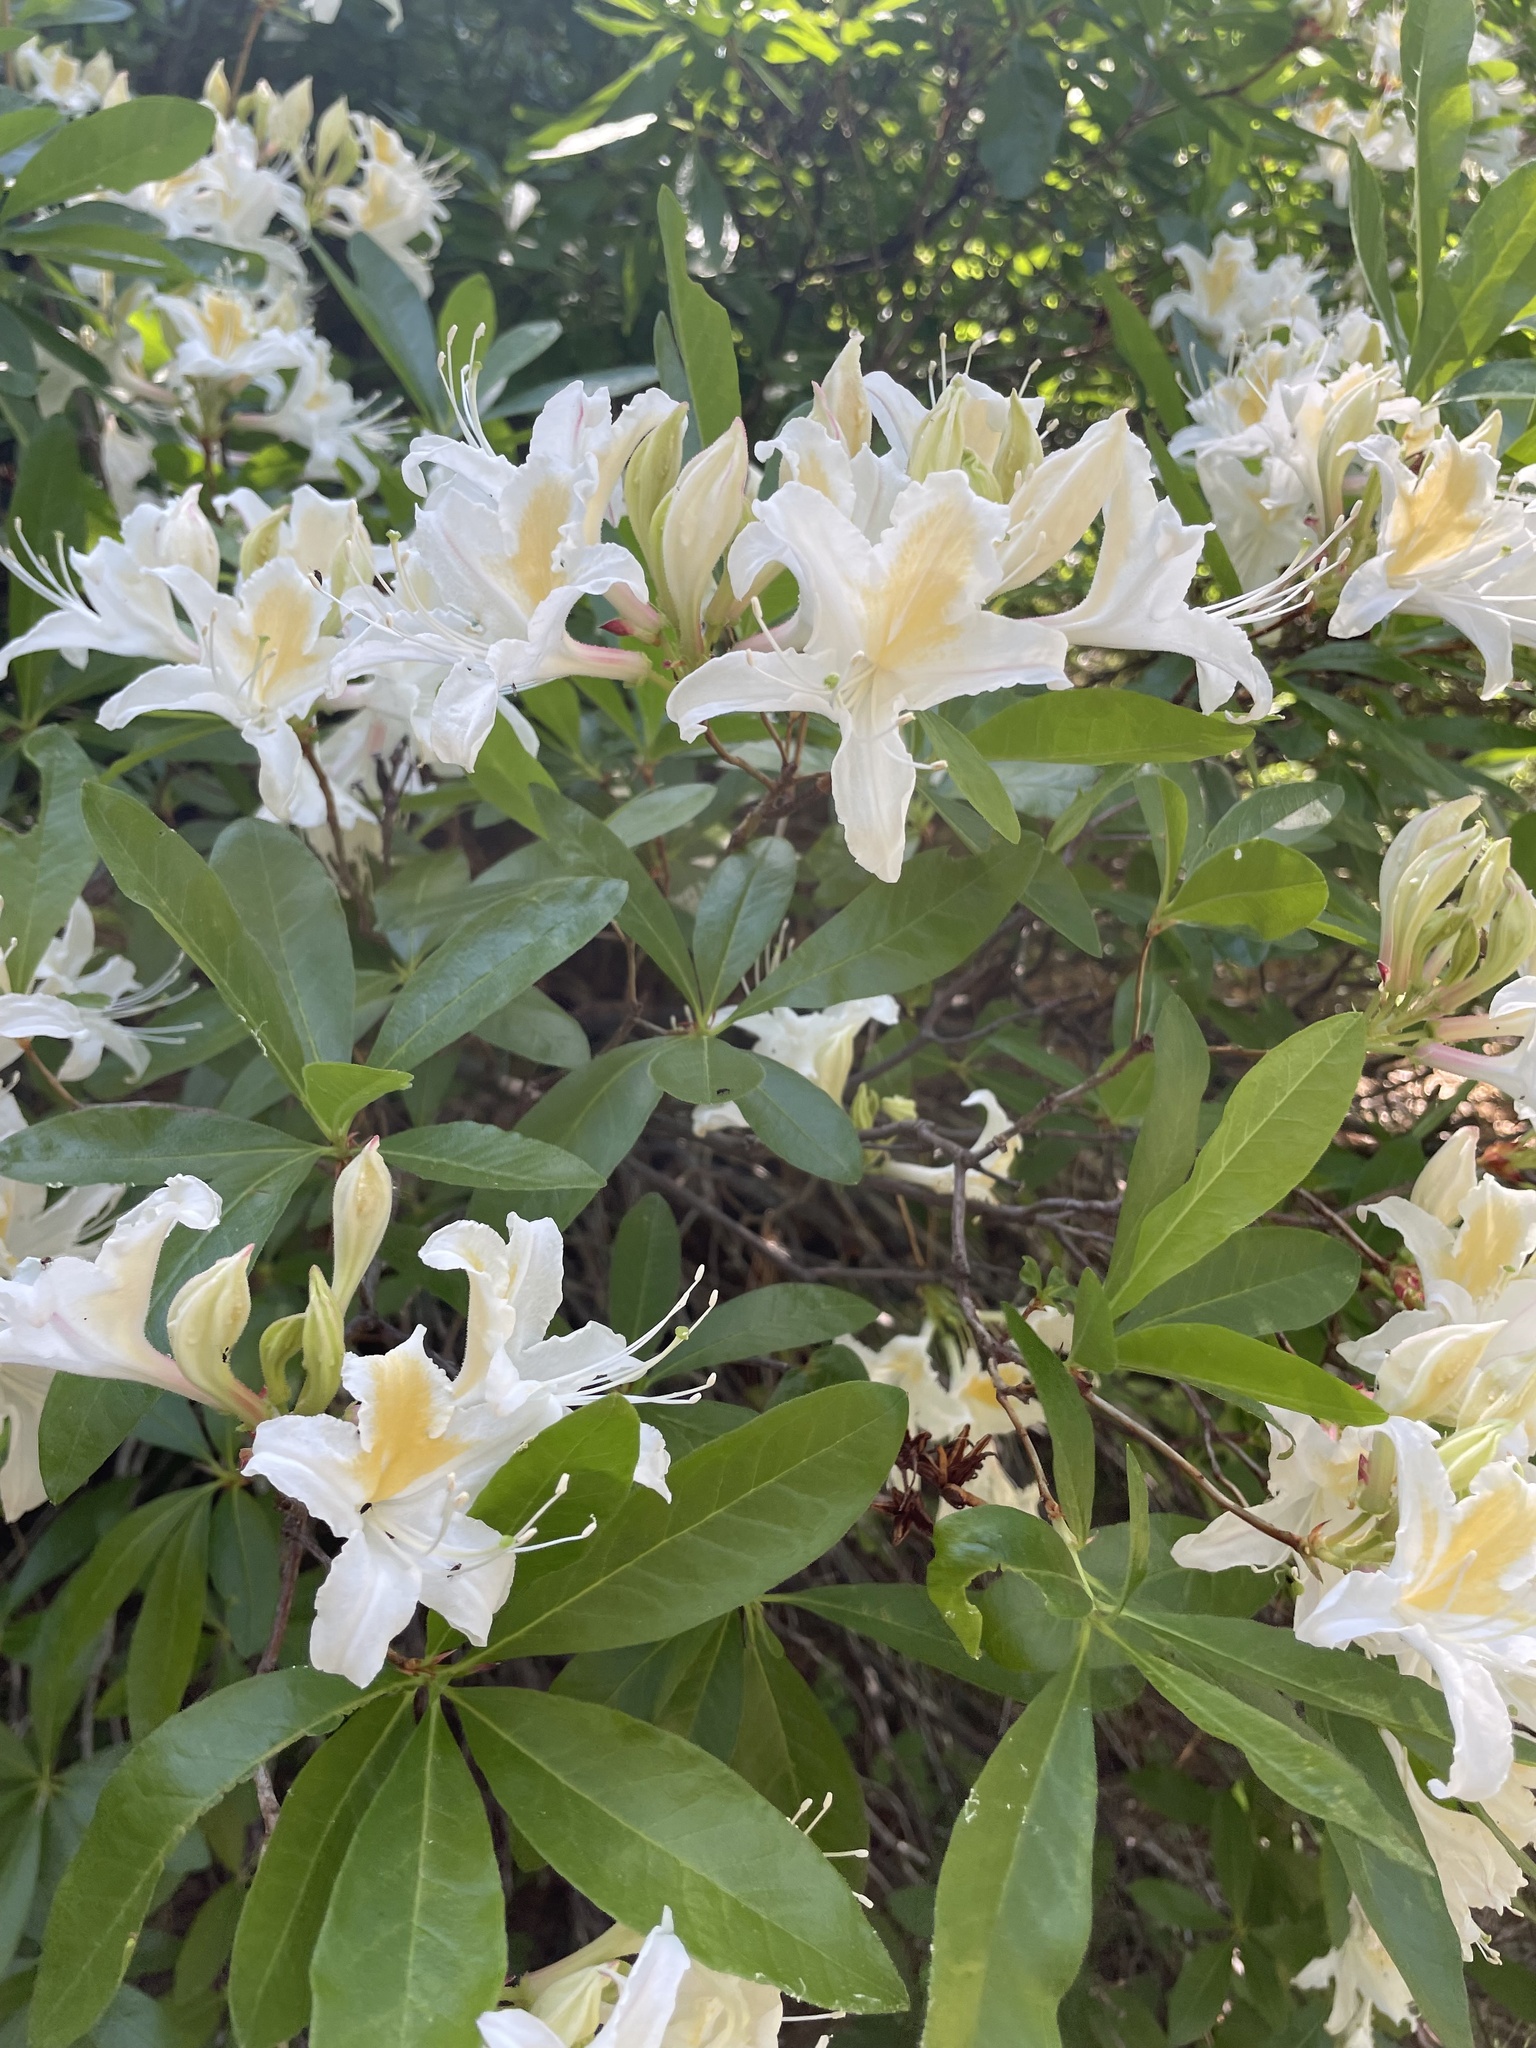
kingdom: Plantae
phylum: Tracheophyta
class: Magnoliopsida
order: Ericales
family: Ericaceae
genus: Rhododendron
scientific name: Rhododendron occidentale
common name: Western azalea
